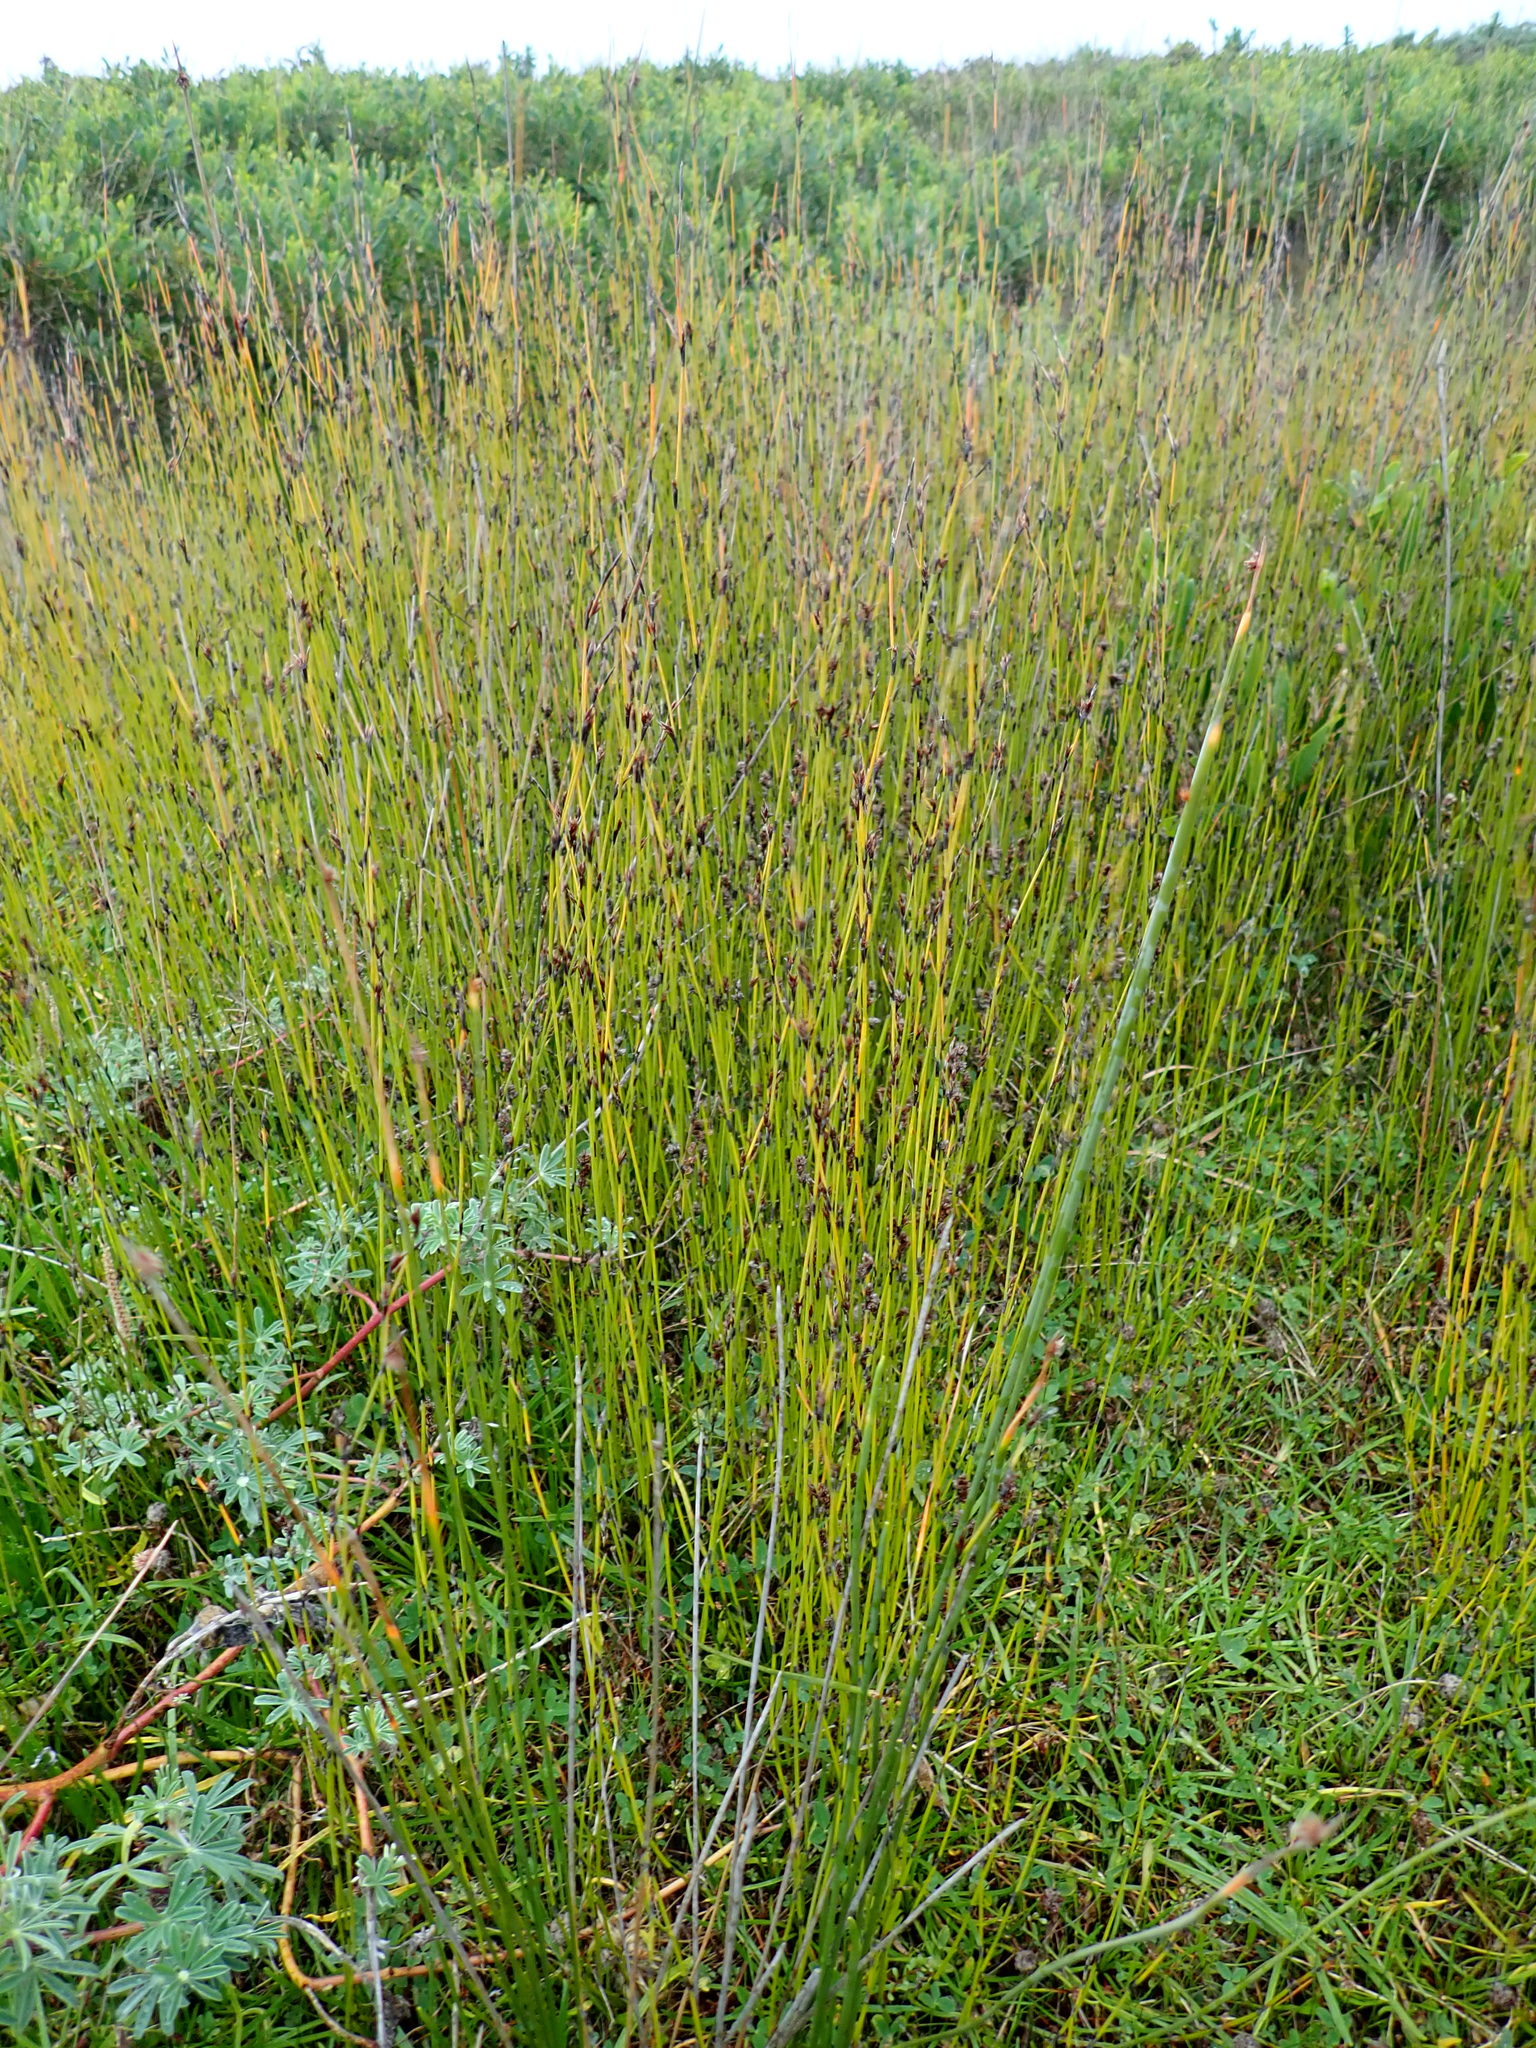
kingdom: Plantae
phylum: Tracheophyta
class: Liliopsida
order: Poales
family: Restionaceae
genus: Apodasmia
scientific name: Apodasmia similis
